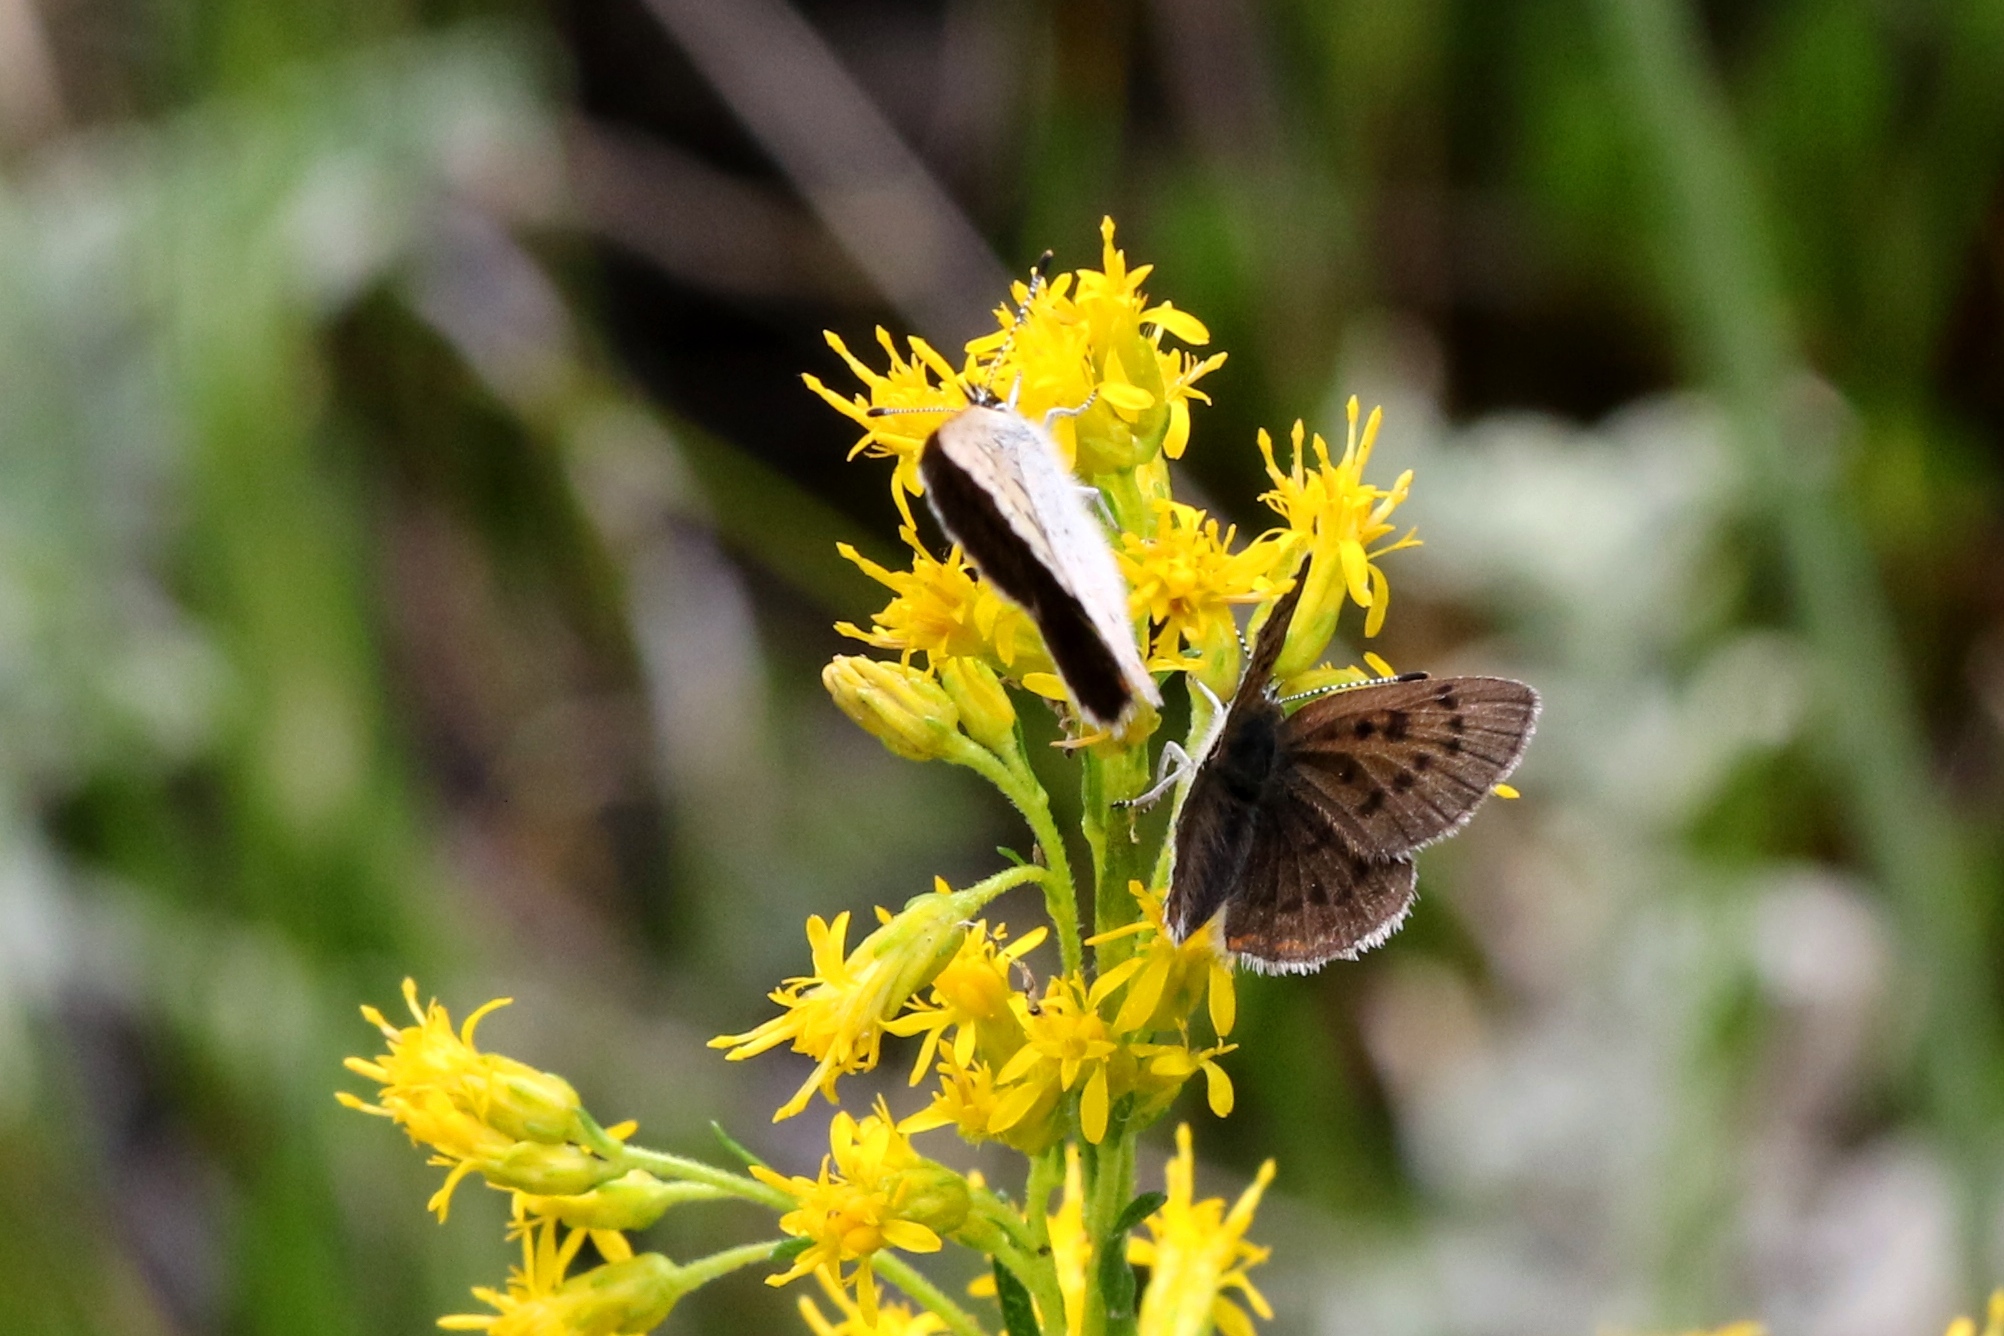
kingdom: Animalia
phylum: Arthropoda
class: Insecta
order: Lepidoptera
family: Lycaenidae
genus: Tharsalea
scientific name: Tharsalea epixanthe
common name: Bog copper
